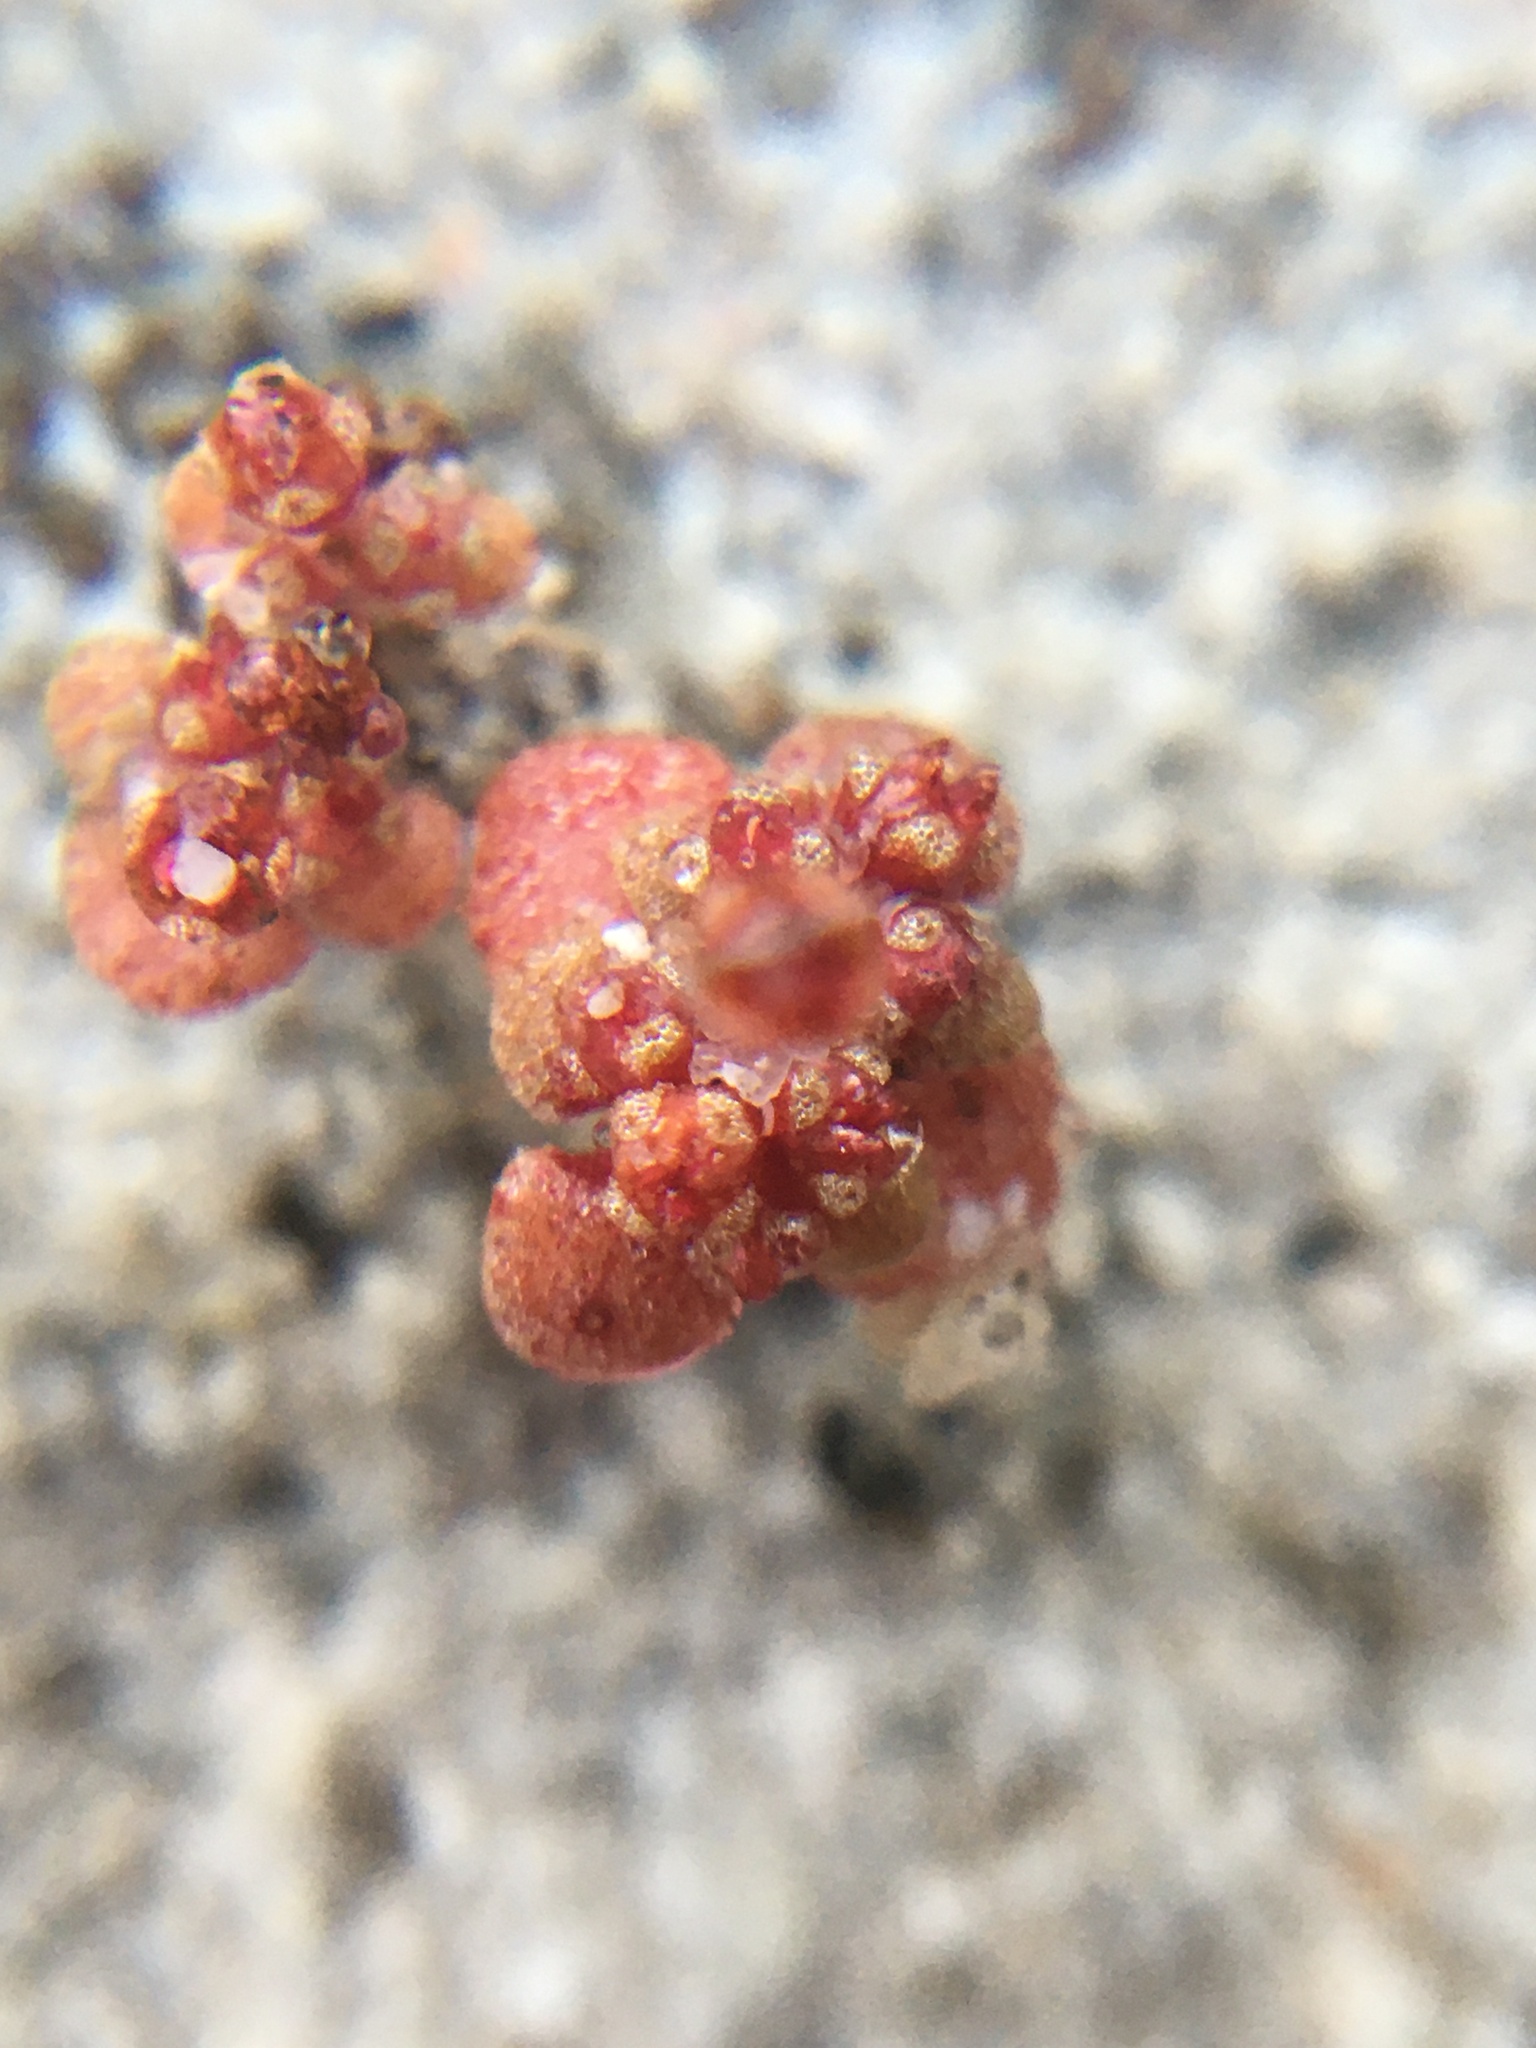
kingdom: Plantae
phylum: Tracheophyta
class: Magnoliopsida
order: Saxifragales
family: Crassulaceae
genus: Crassula
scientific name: Crassula umbellata
